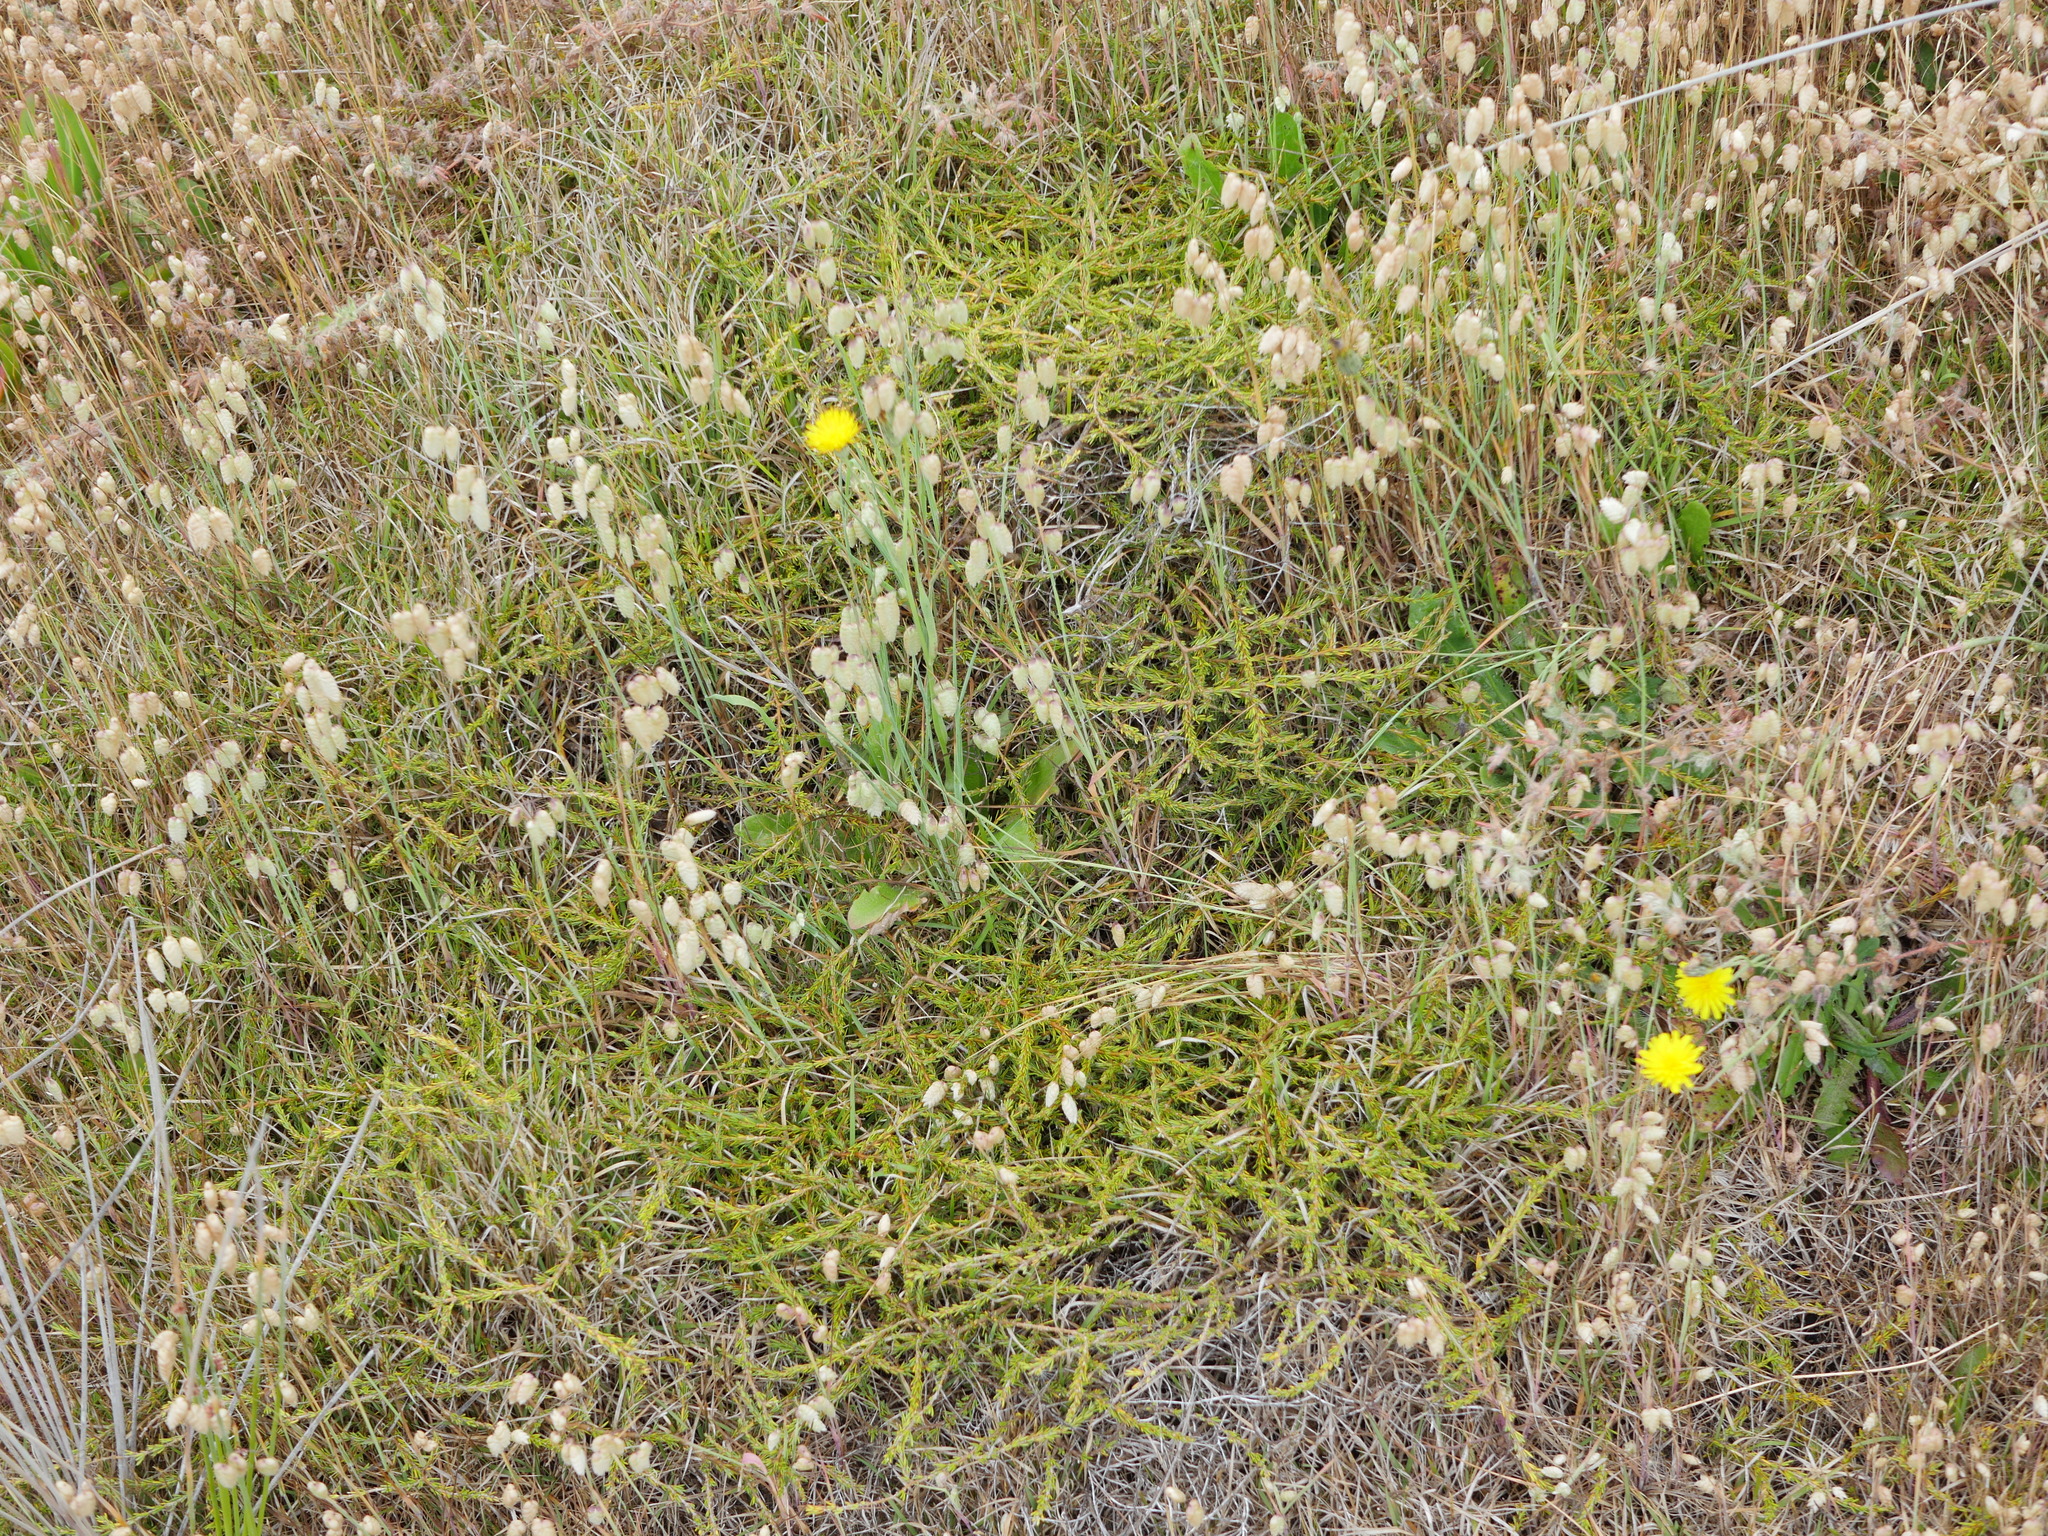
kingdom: Plantae
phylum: Tracheophyta
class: Magnoliopsida
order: Gentianales
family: Rubiaceae
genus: Coprosma
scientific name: Coprosma acerosa
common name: Sand coprosma
